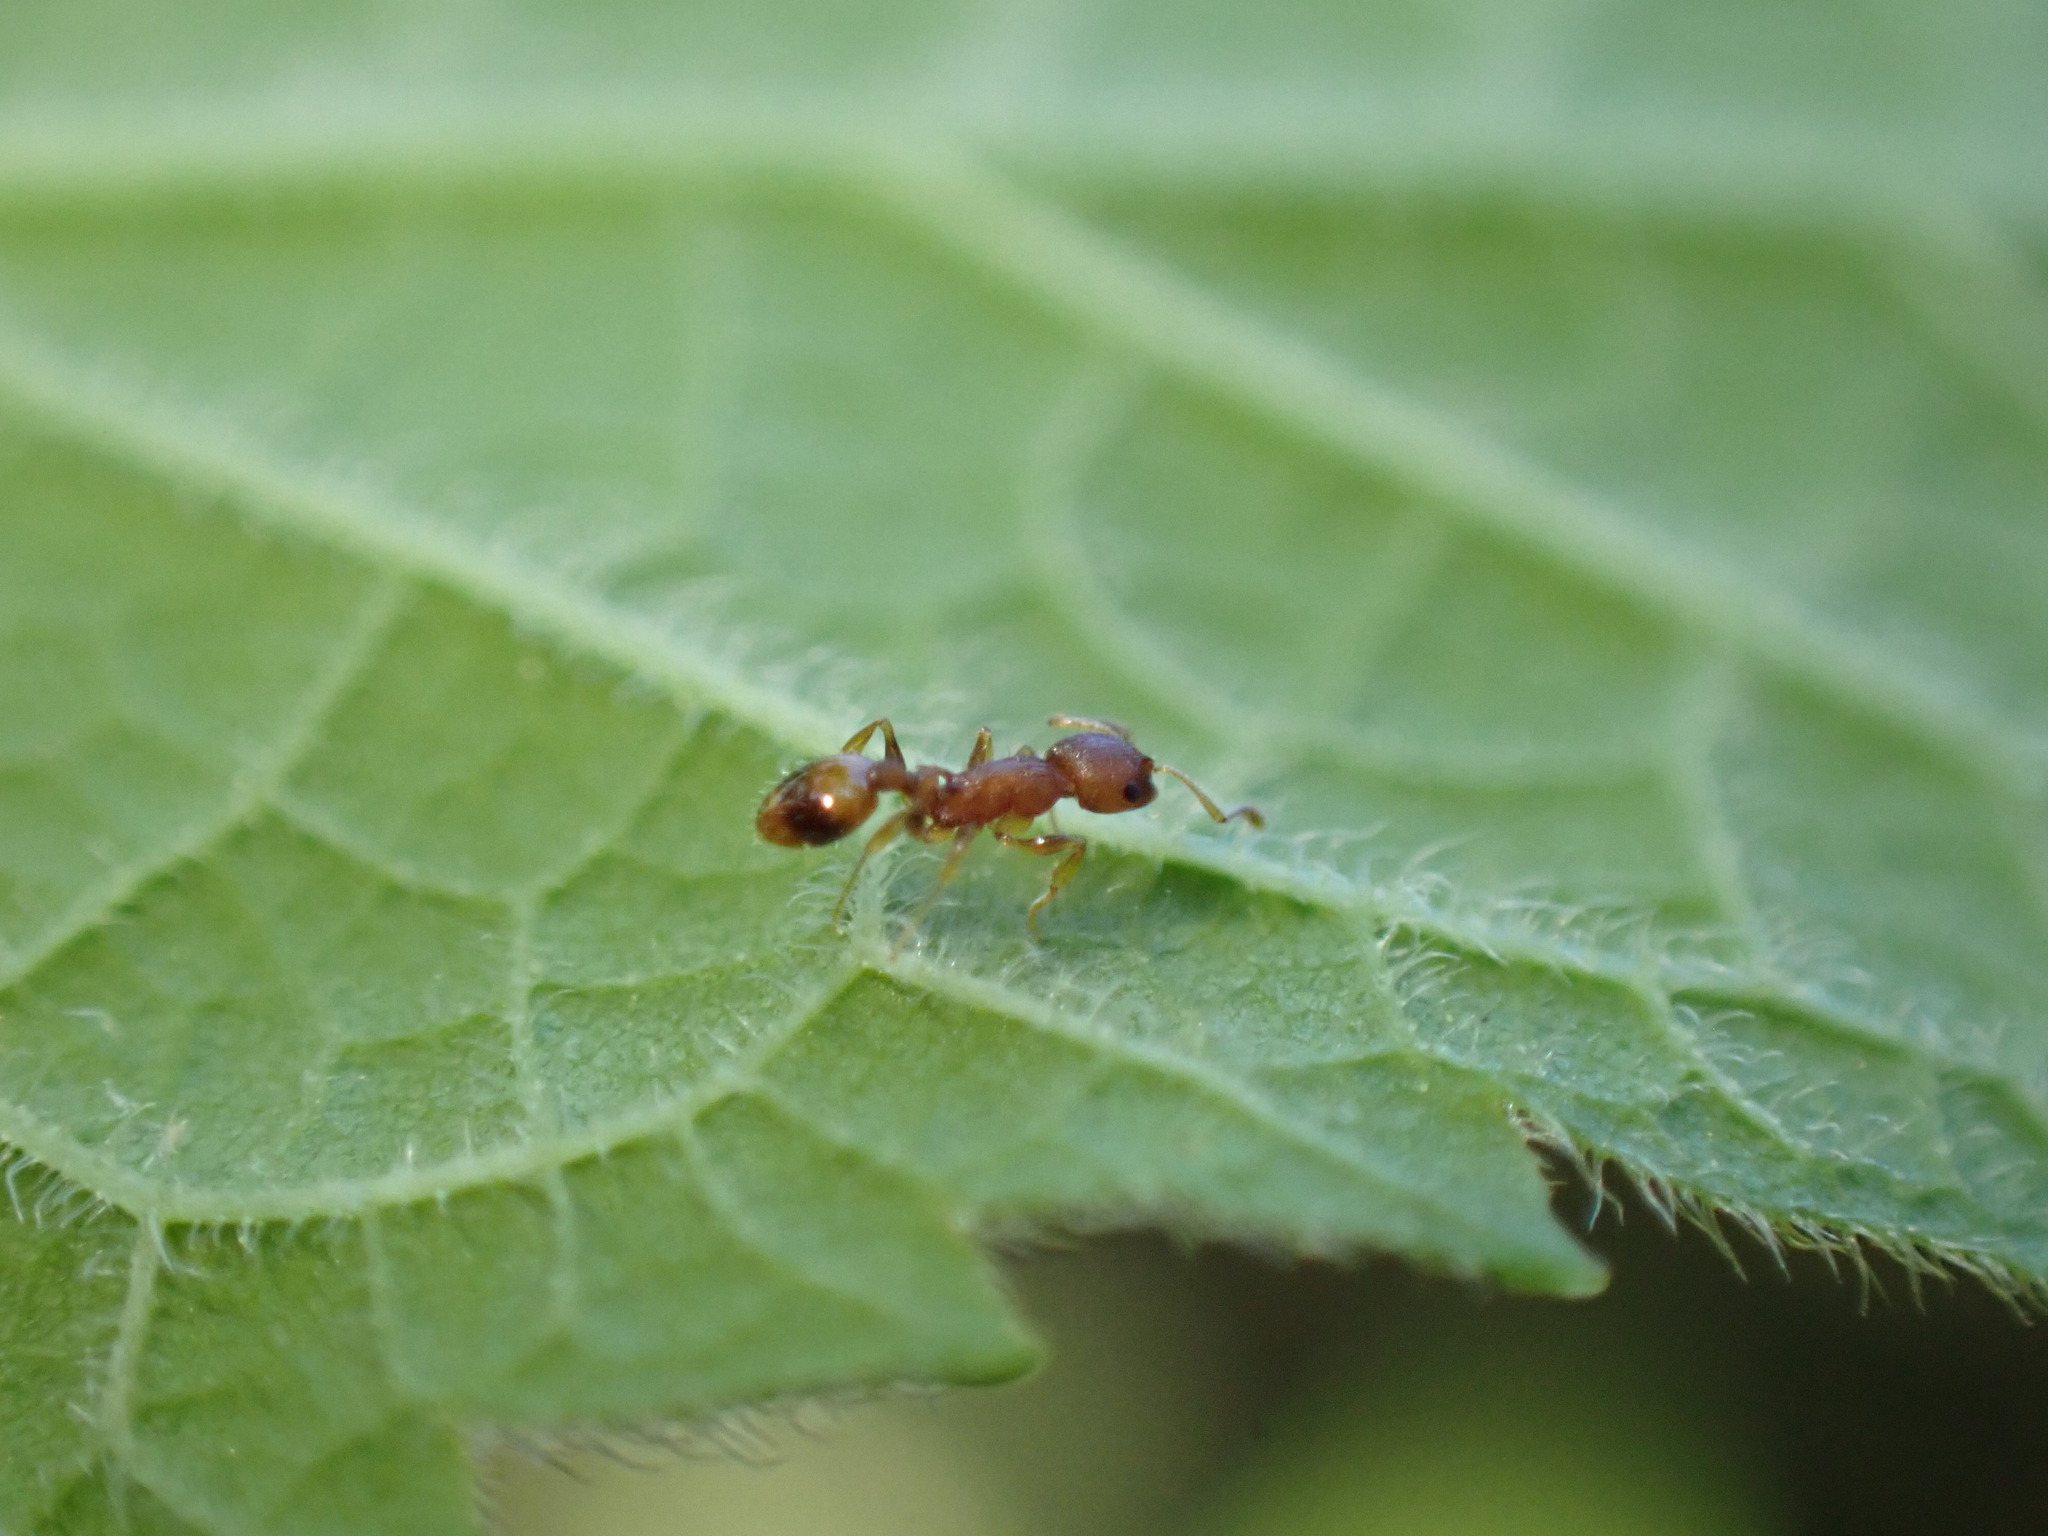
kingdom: Animalia
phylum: Arthropoda
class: Insecta
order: Hymenoptera
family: Formicidae
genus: Temnothorax
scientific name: Temnothorax curvispinosus
